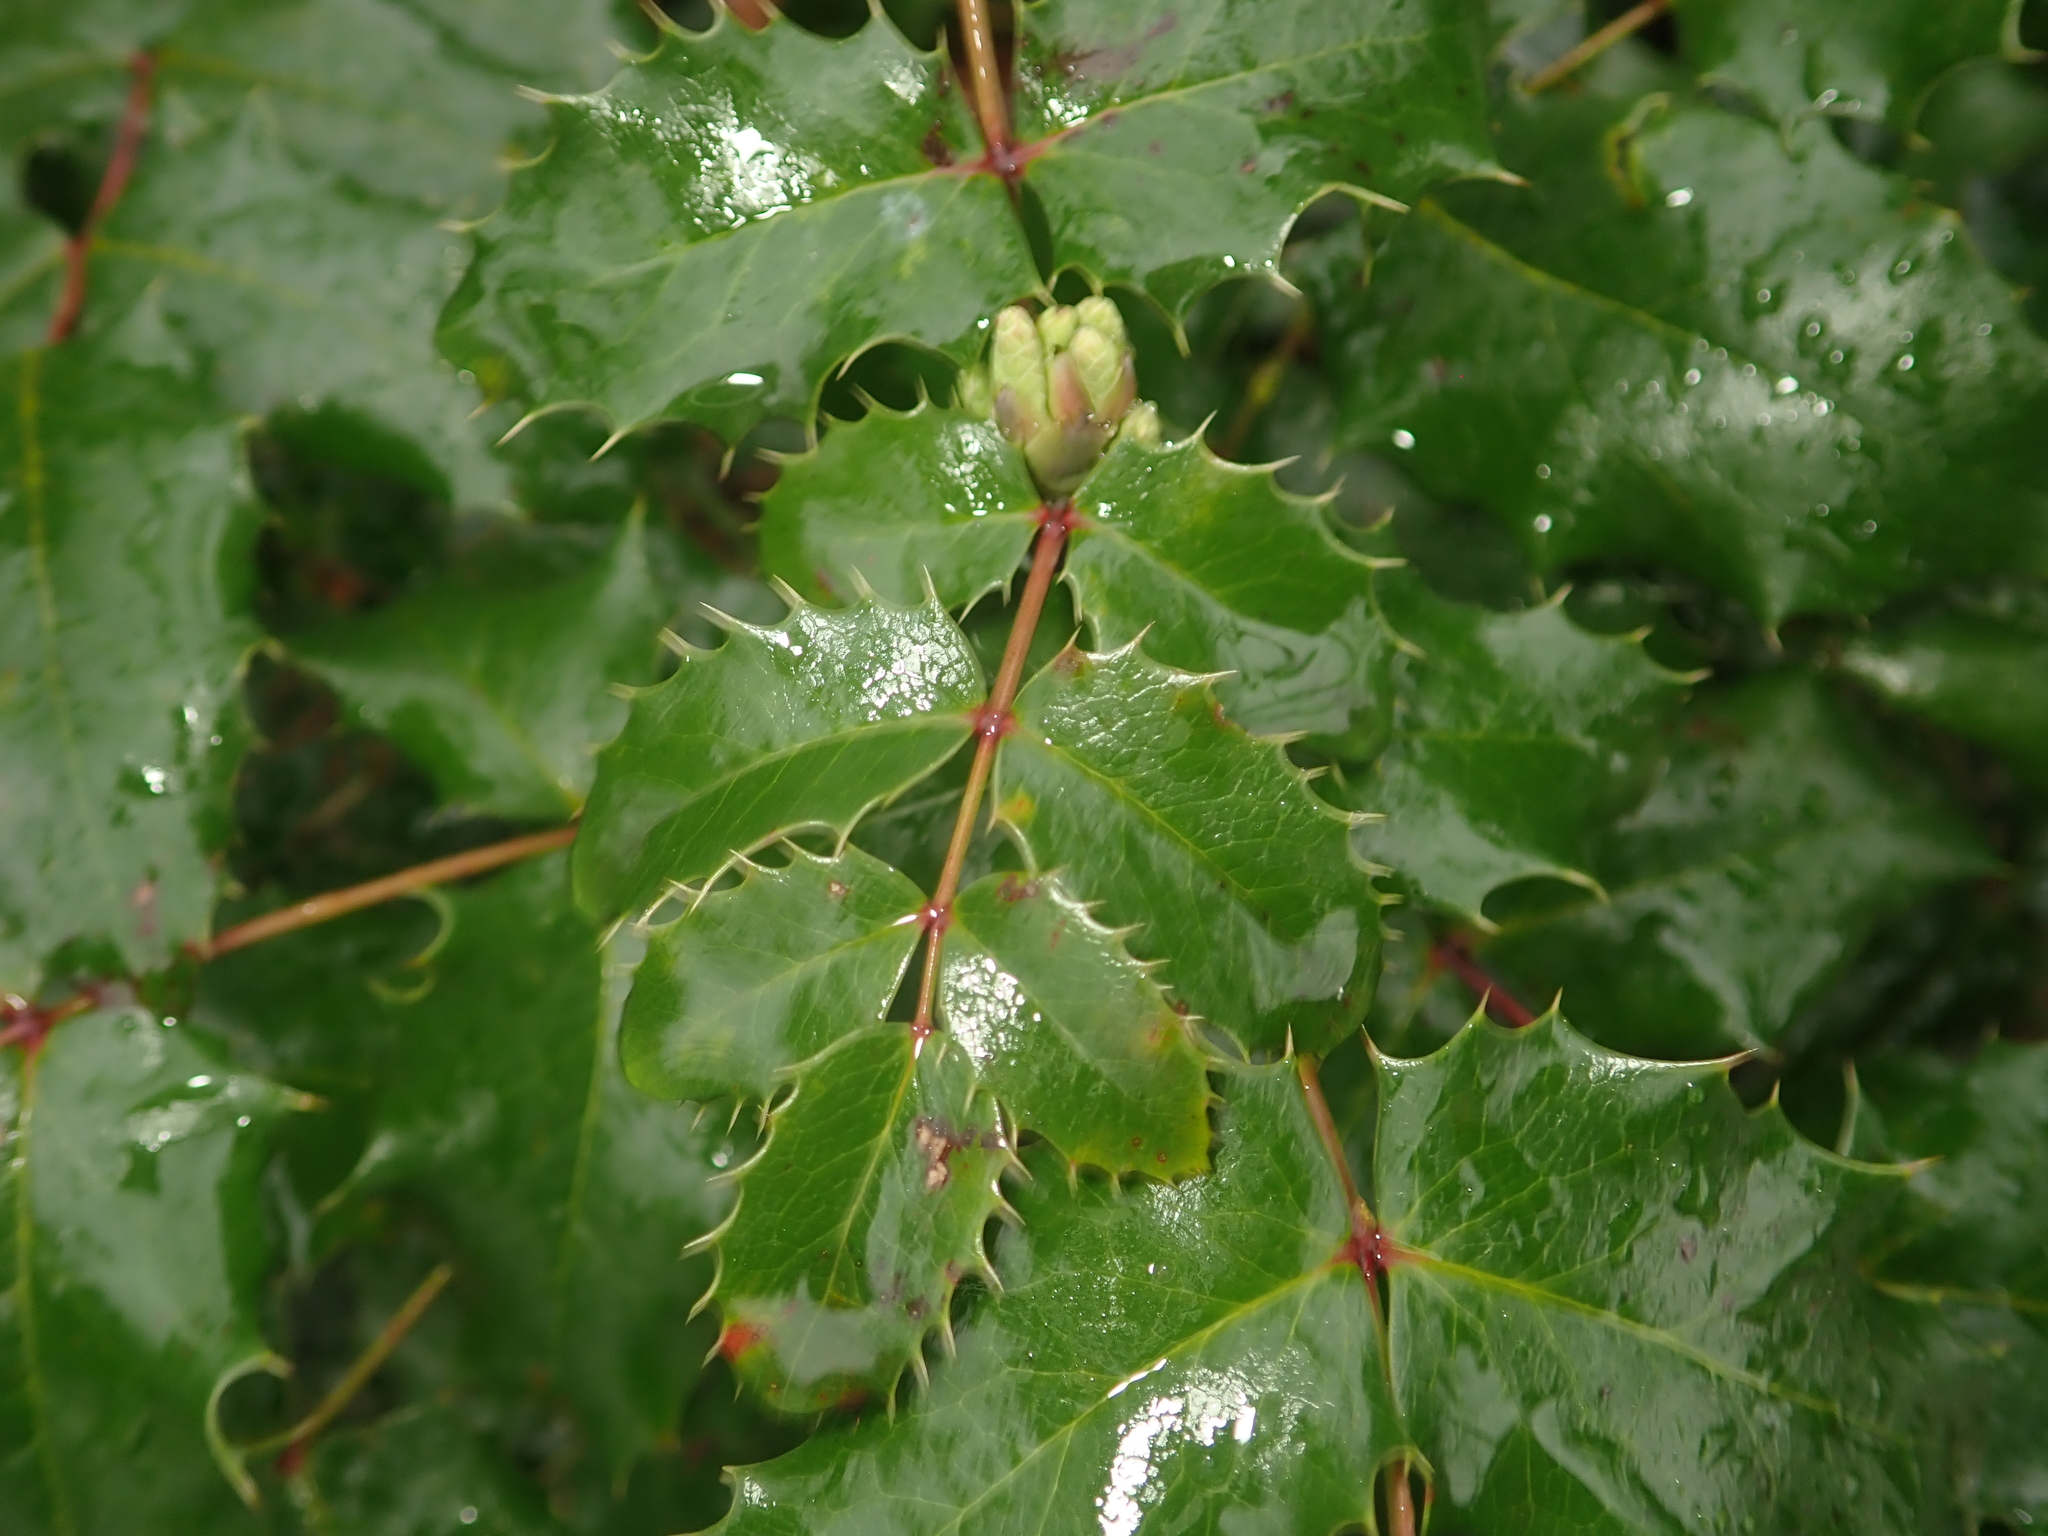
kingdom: Plantae
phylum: Tracheophyta
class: Magnoliopsida
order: Ranunculales
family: Berberidaceae
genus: Mahonia
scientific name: Mahonia aquifolium
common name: Oregon-grape
